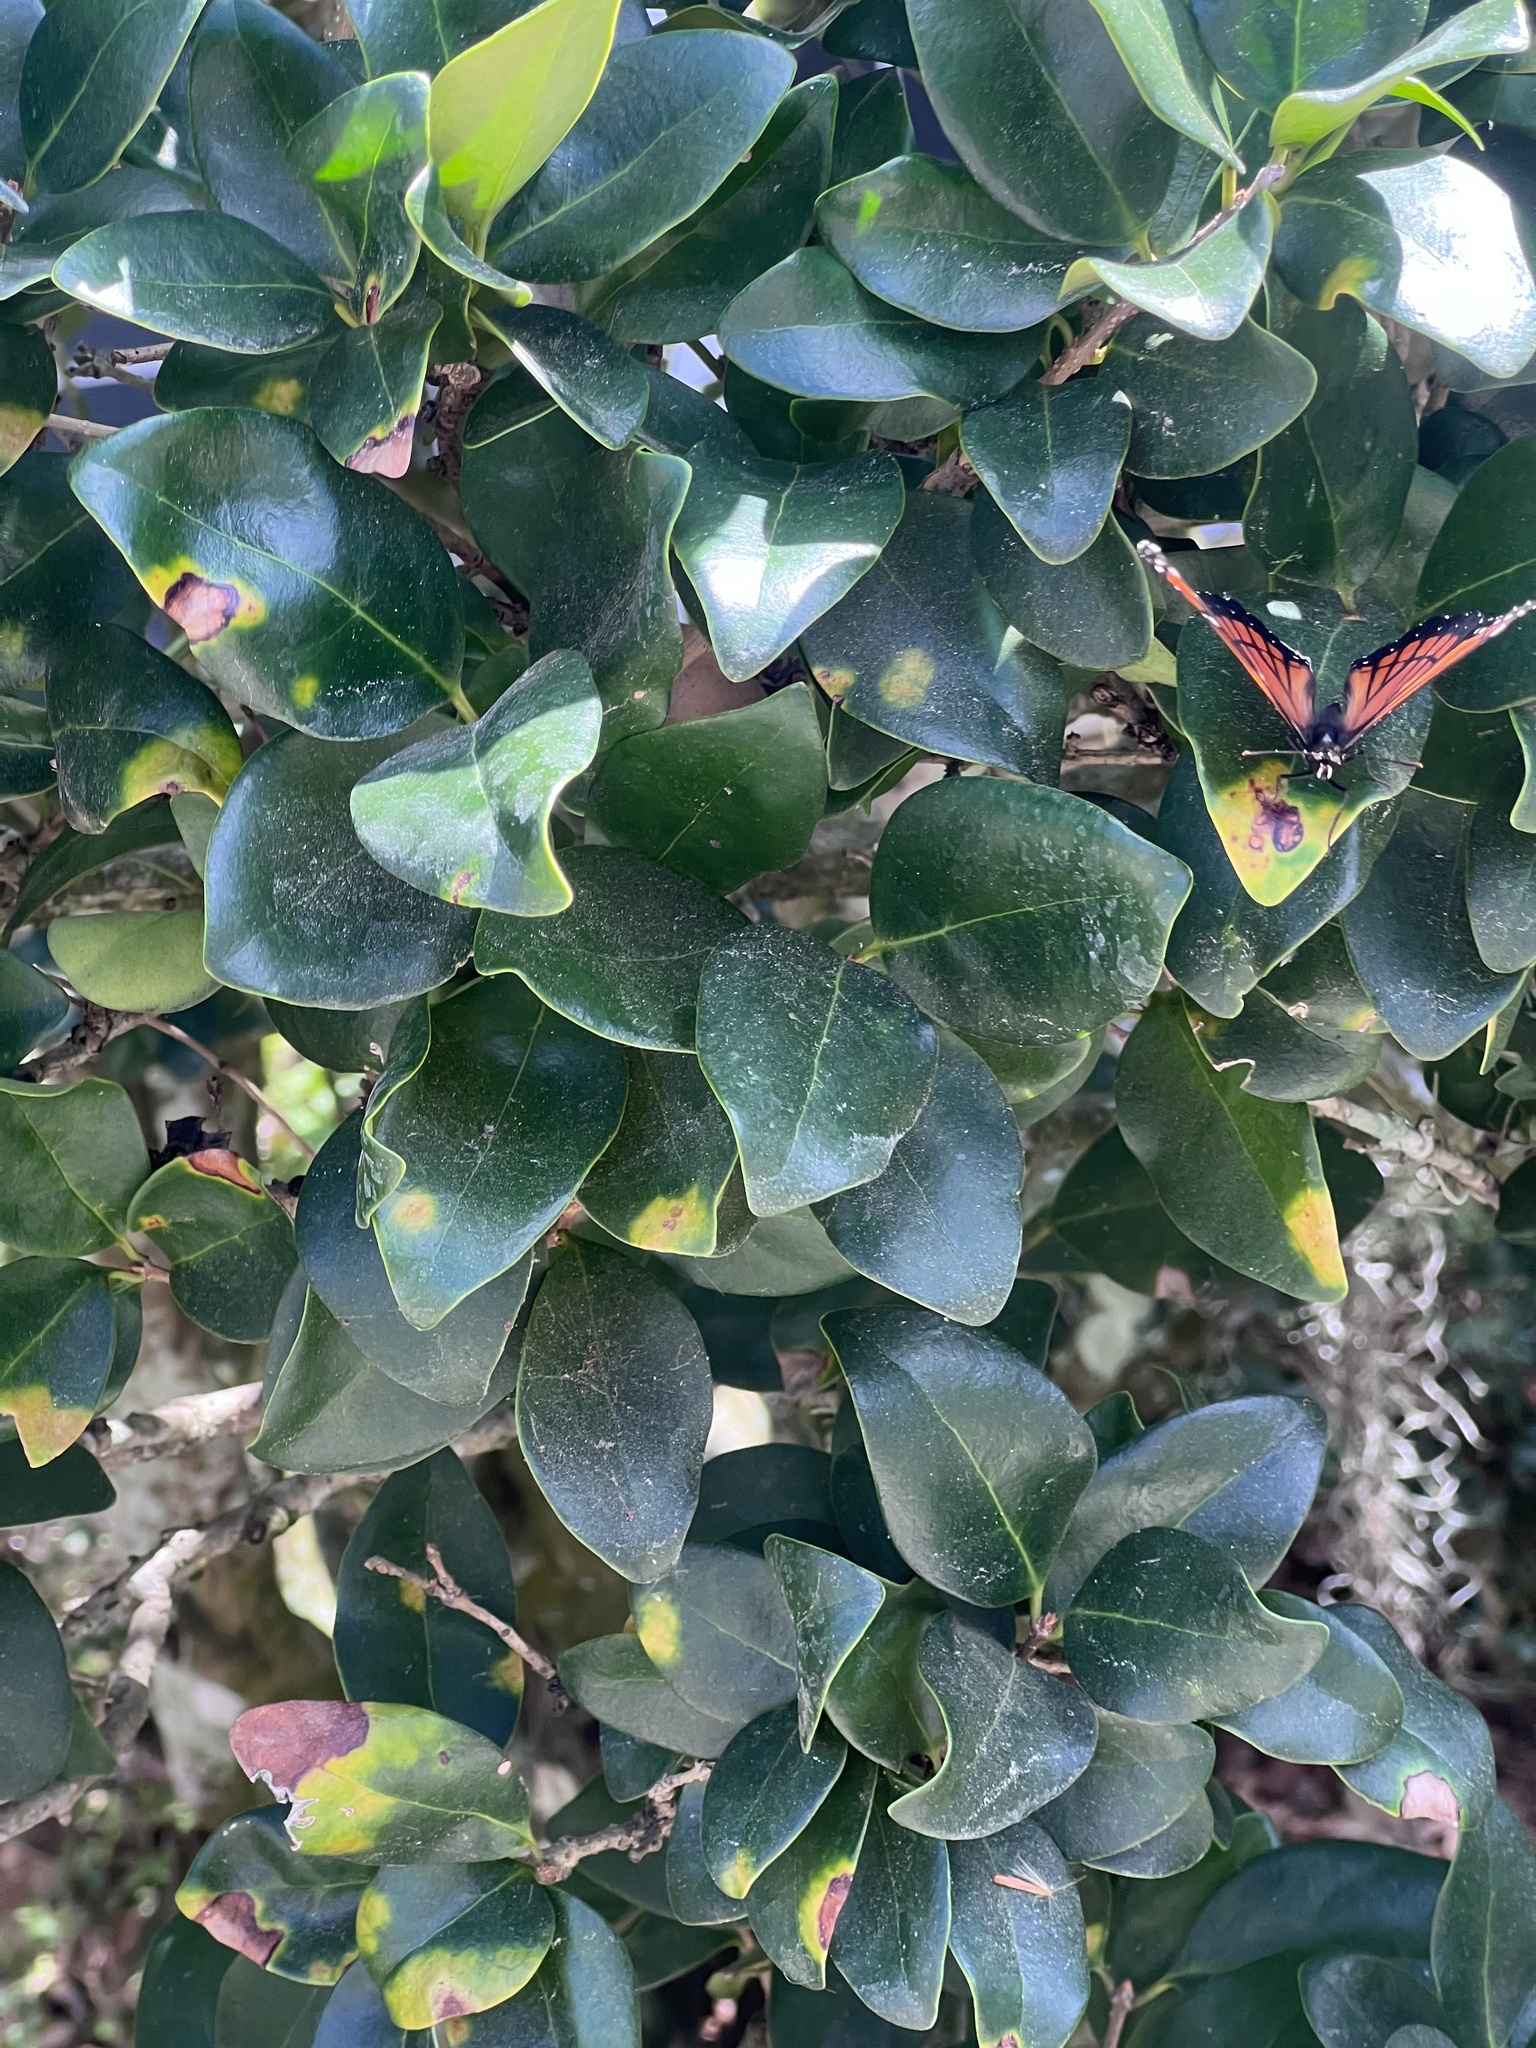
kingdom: Animalia
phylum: Arthropoda
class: Insecta
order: Lepidoptera
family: Nymphalidae
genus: Limenitis
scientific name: Limenitis archippus
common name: Viceroy
